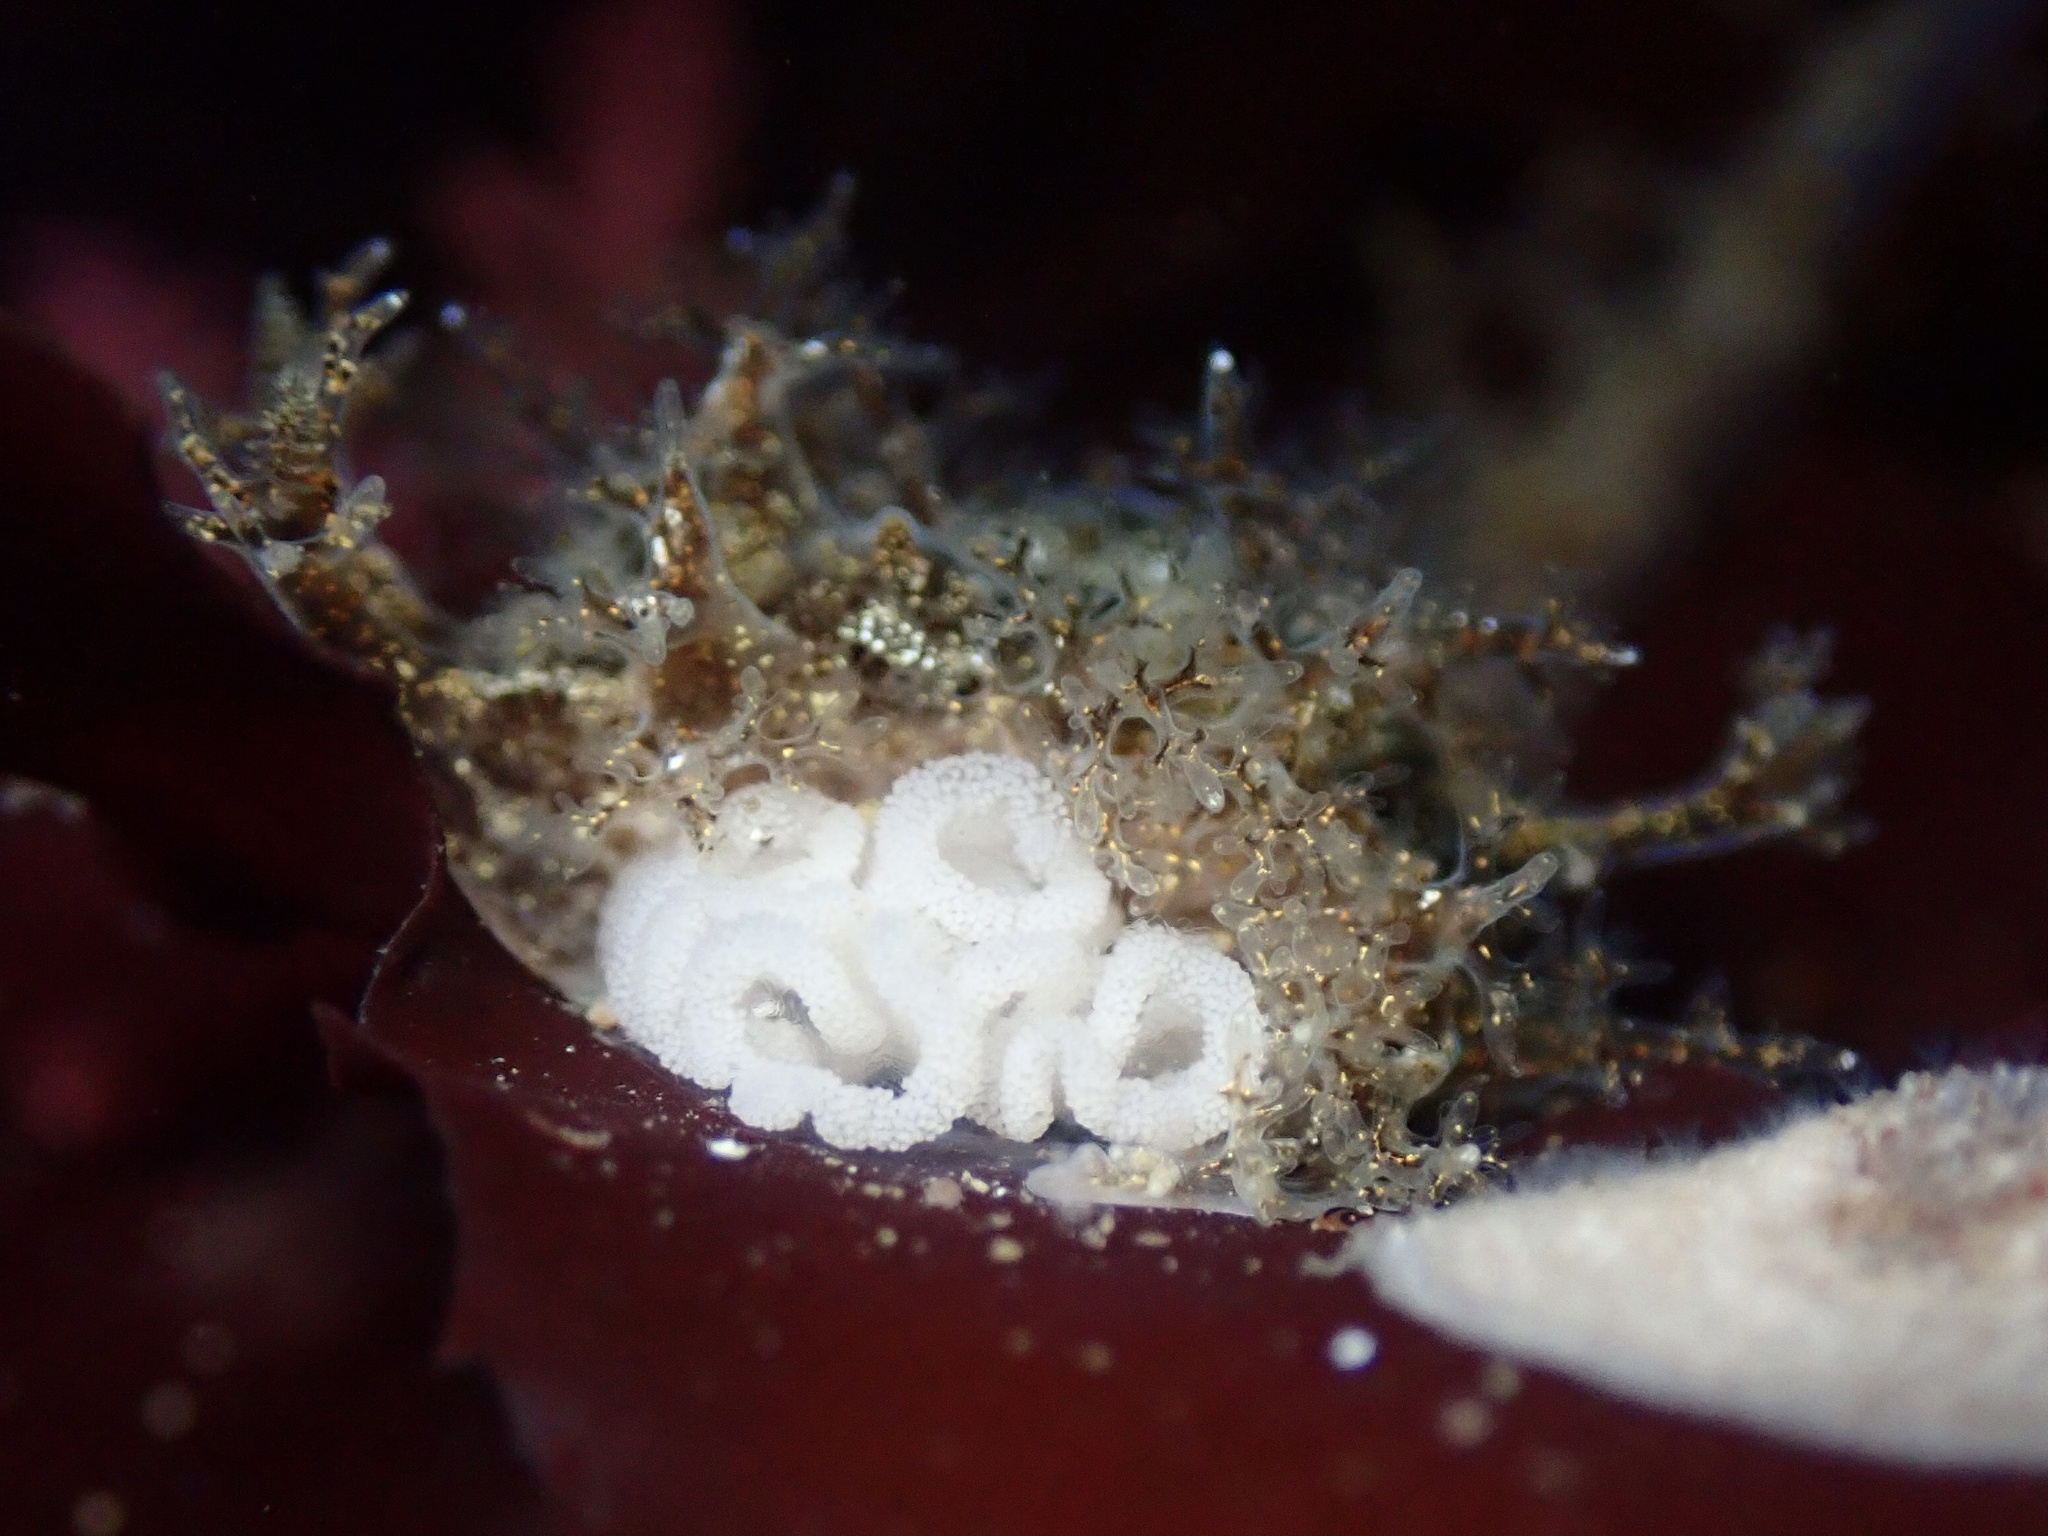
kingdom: Animalia
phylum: Mollusca
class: Gastropoda
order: Nudibranchia
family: Dendronotidae
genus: Dendronotus
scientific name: Dendronotus venustus
